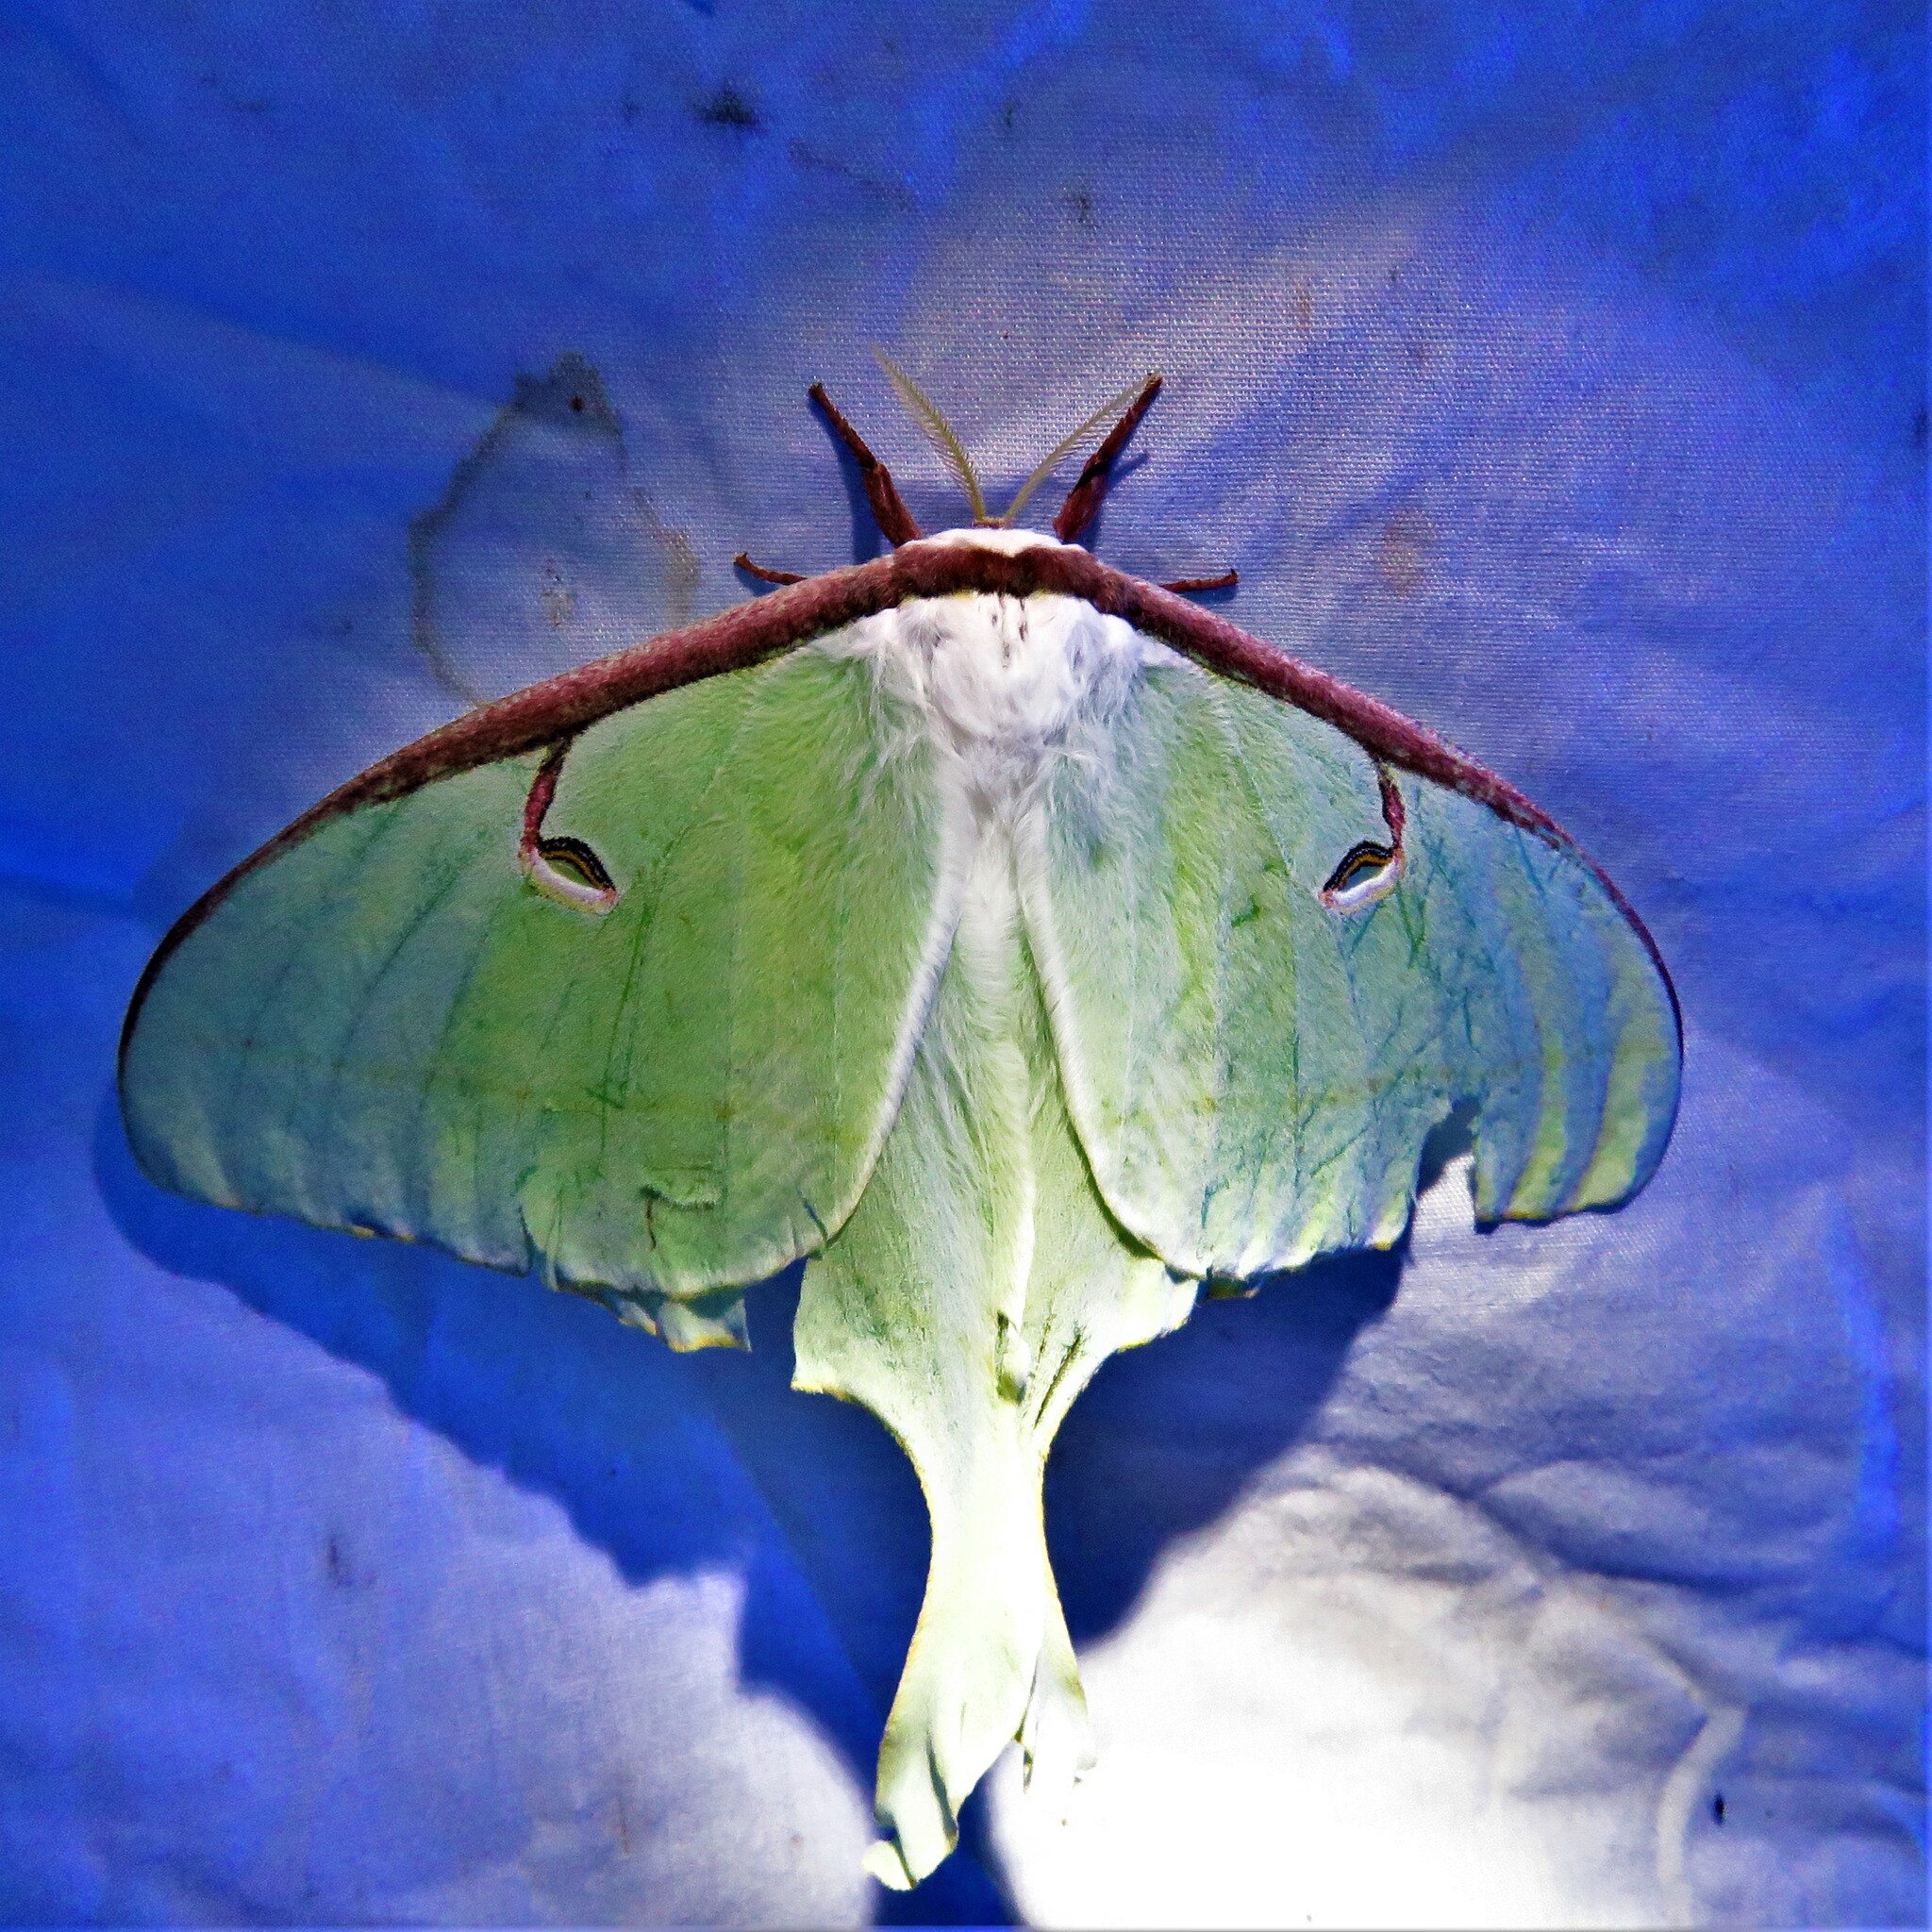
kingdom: Animalia
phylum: Arthropoda
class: Insecta
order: Lepidoptera
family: Saturniidae
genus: Actias
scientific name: Actias luna
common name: Luna moth
